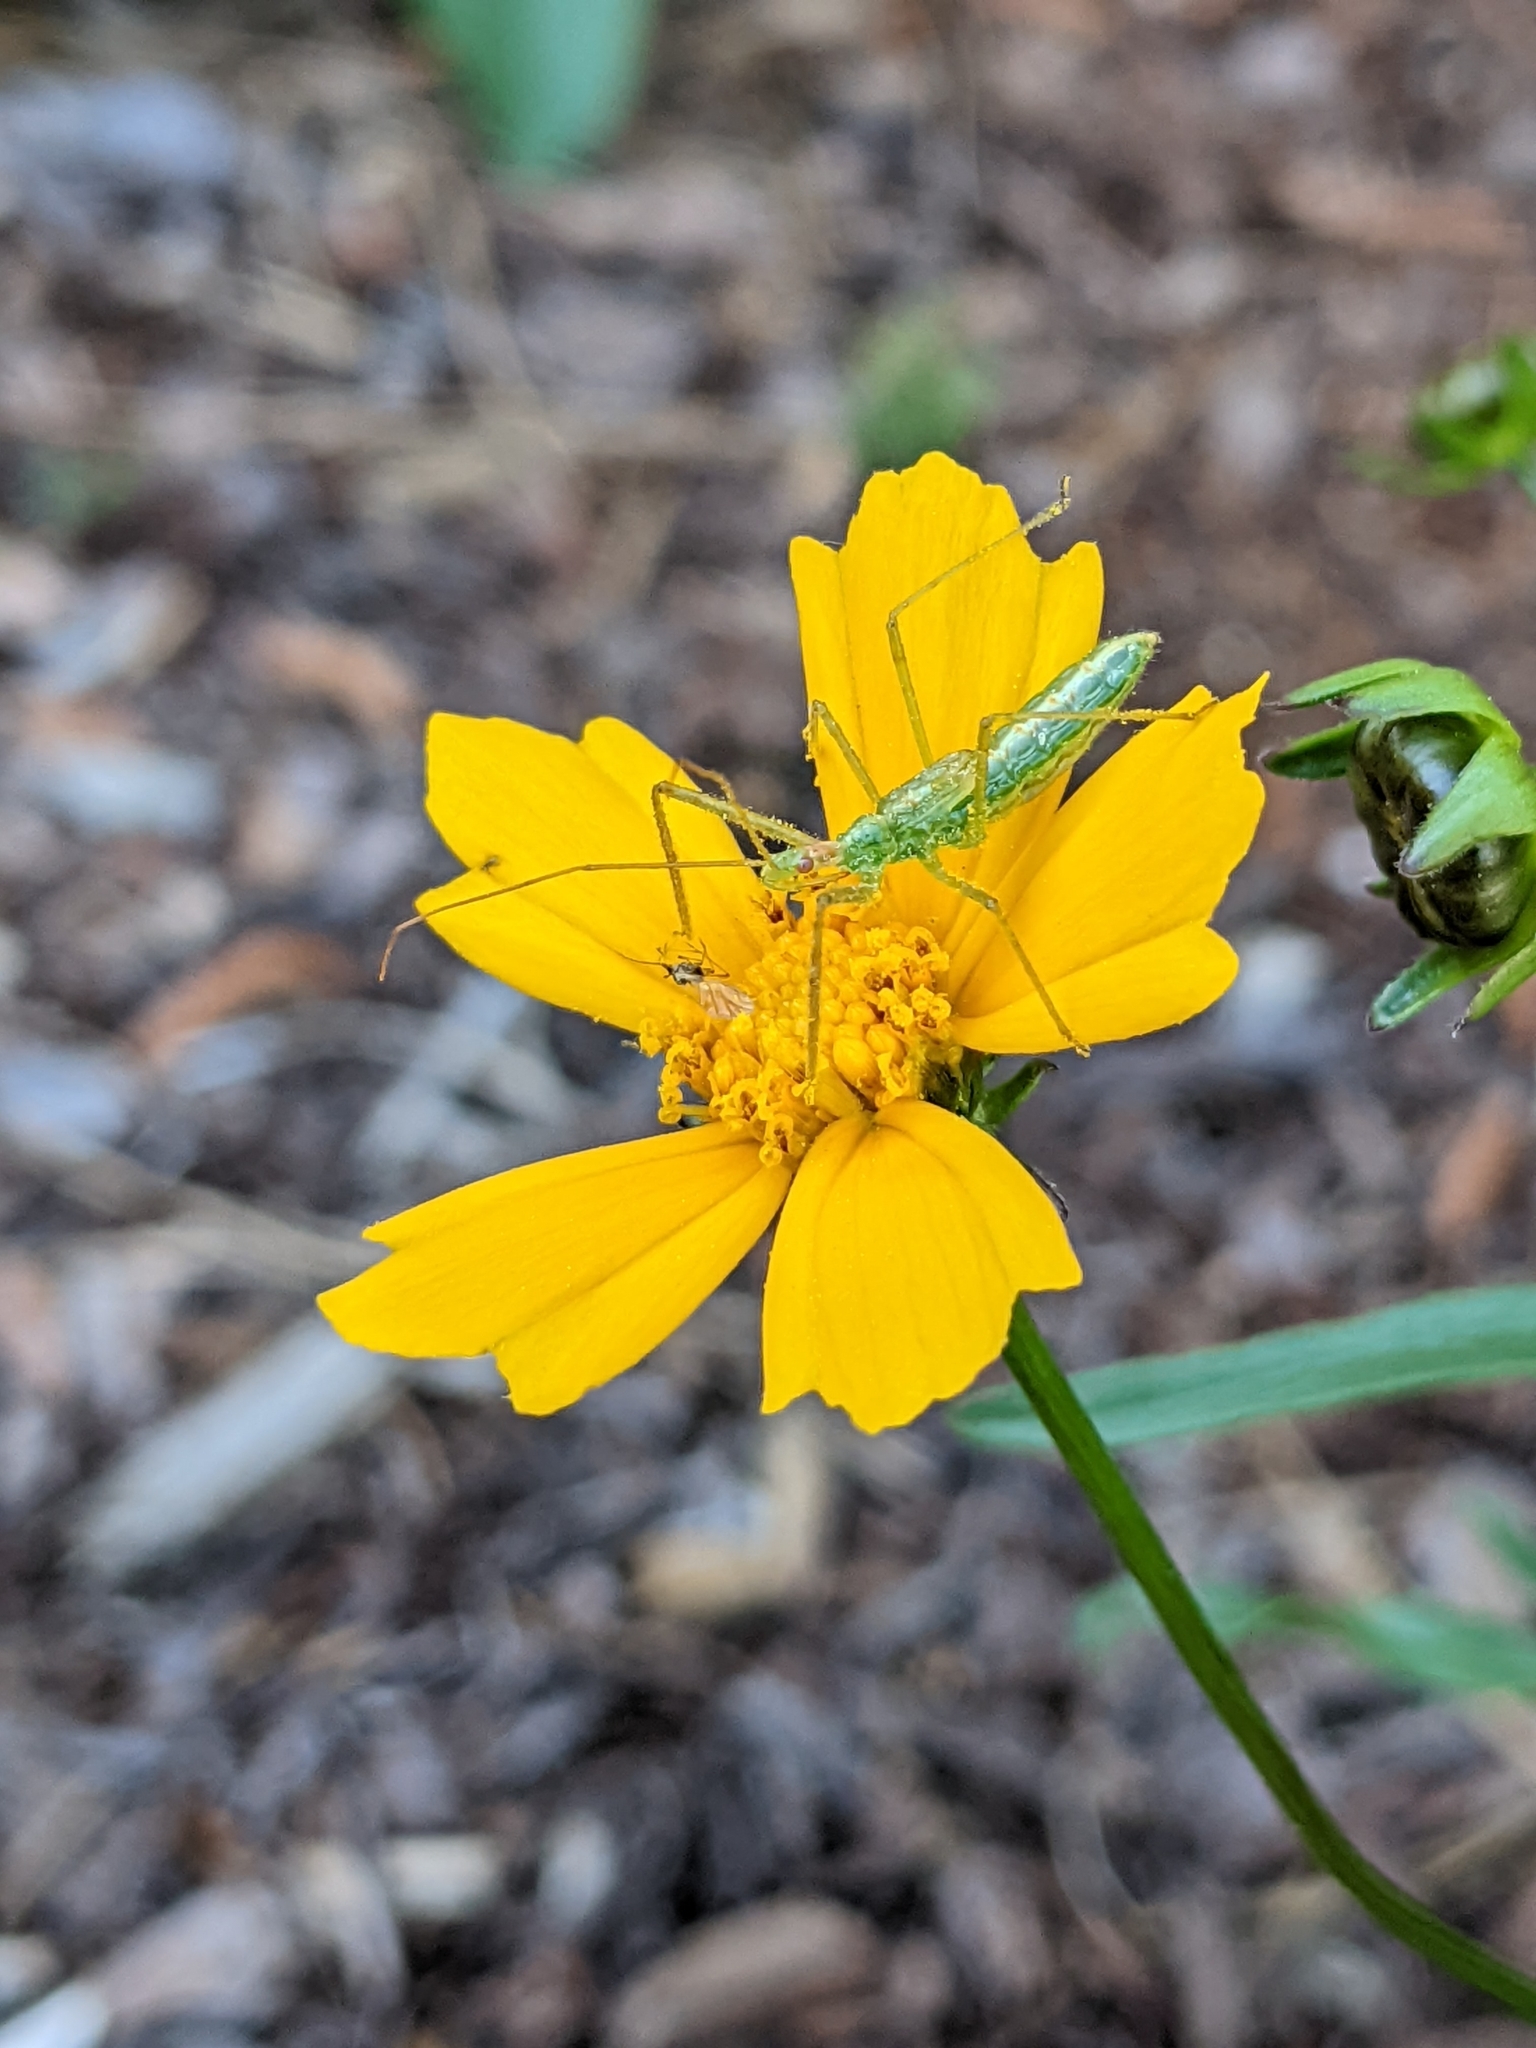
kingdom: Animalia
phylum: Arthropoda
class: Insecta
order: Hemiptera
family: Reduviidae
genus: Zelus
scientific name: Zelus luridus
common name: Pale green assassin bug
